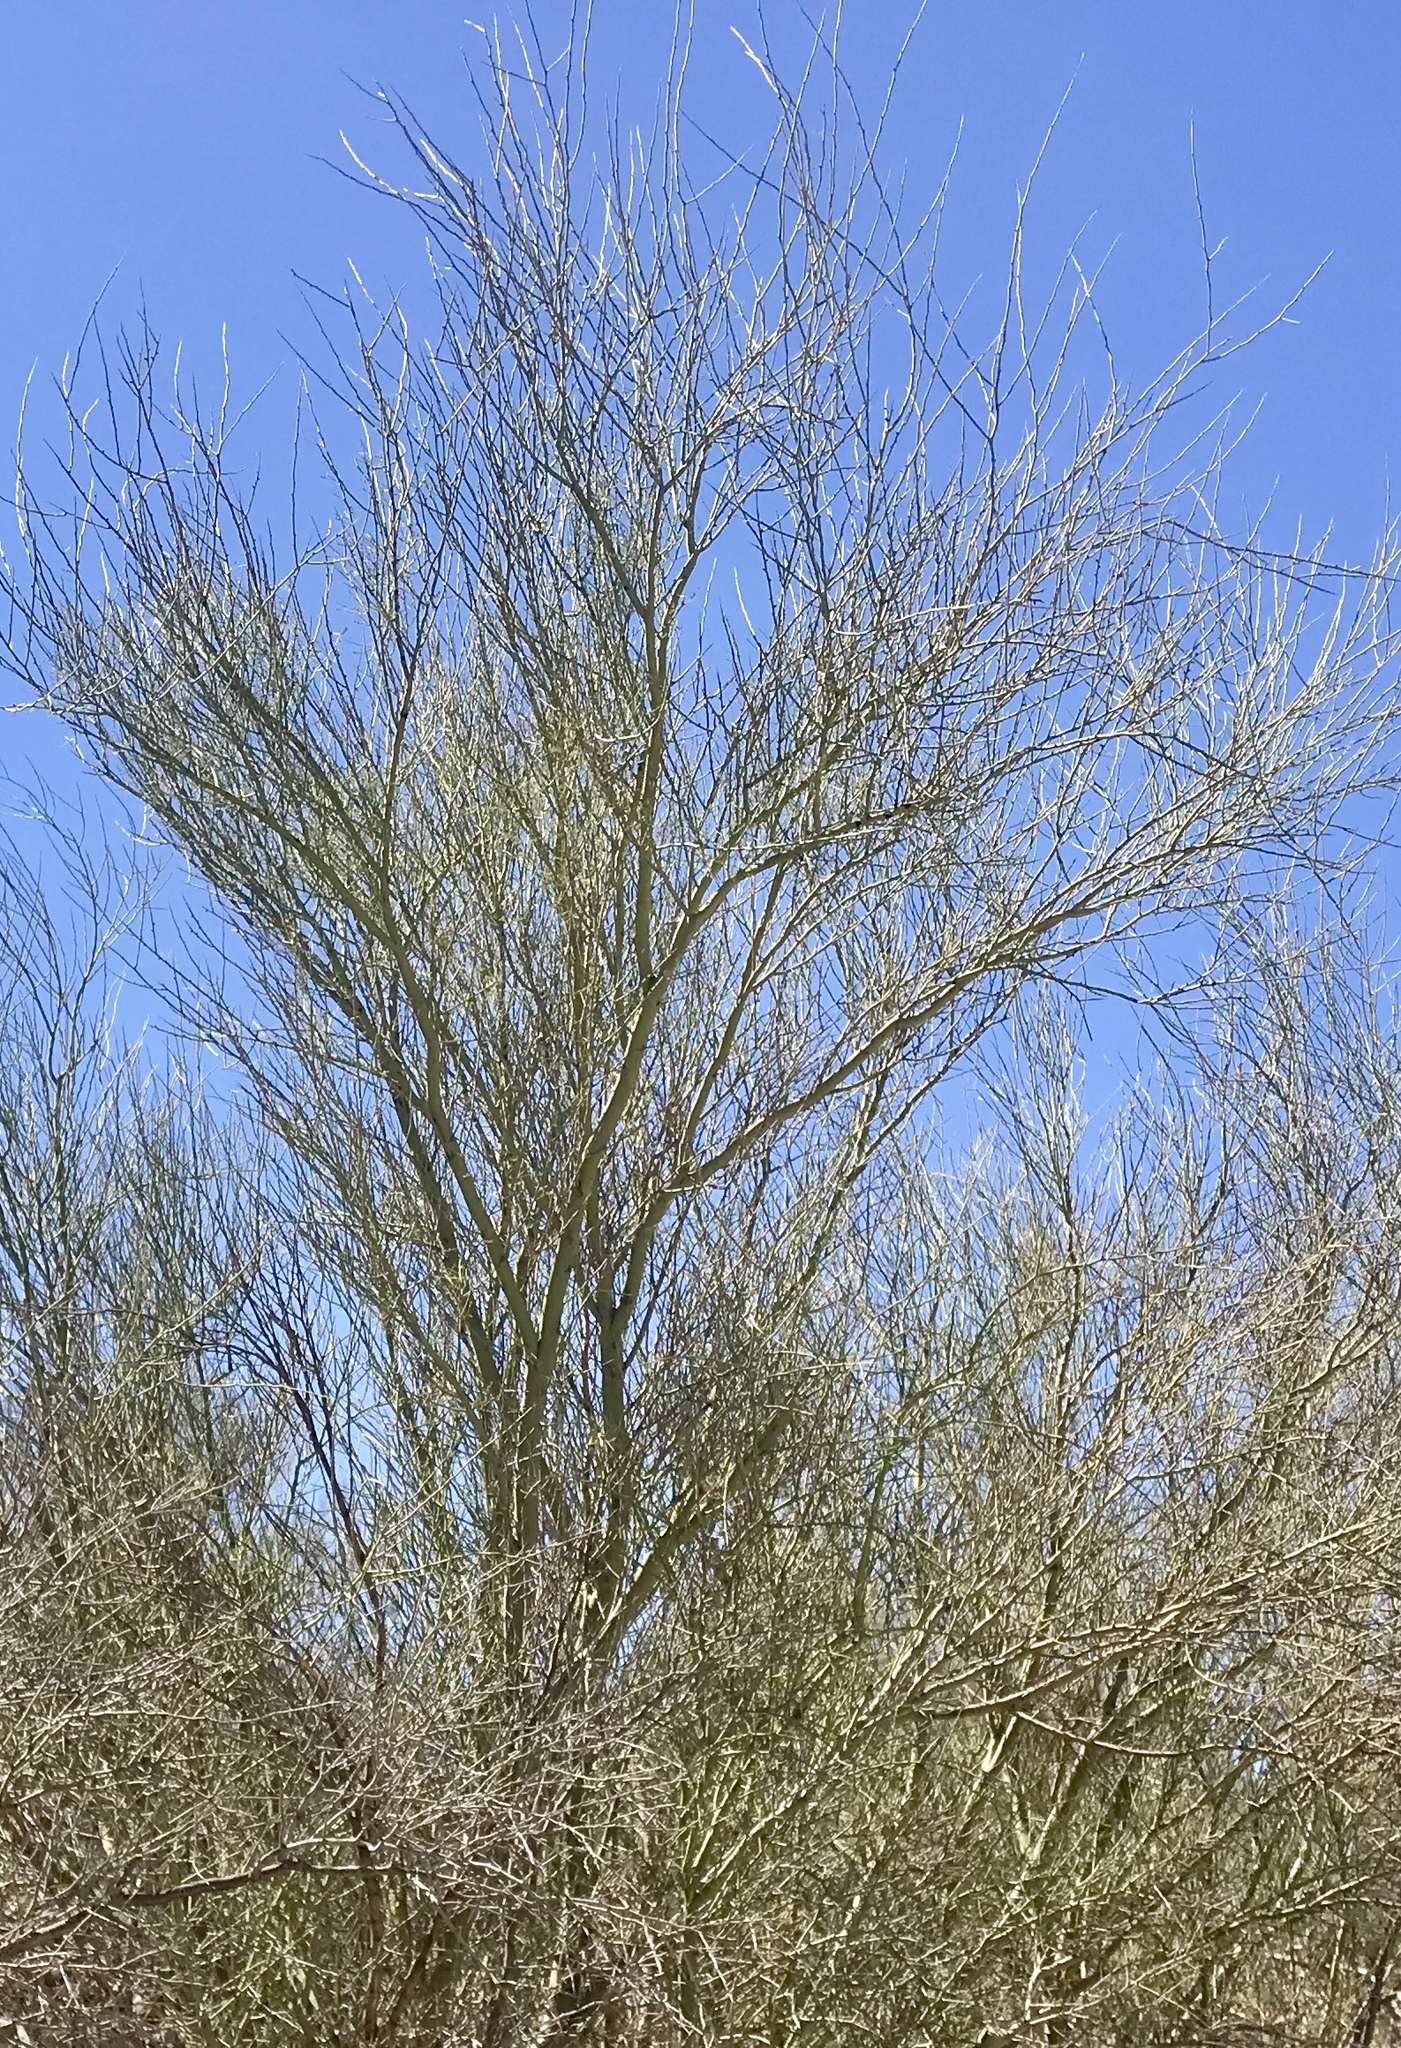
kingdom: Plantae
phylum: Tracheophyta
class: Magnoliopsida
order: Fabales
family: Fabaceae
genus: Parkinsonia
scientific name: Parkinsonia florida
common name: Blue paloverde
